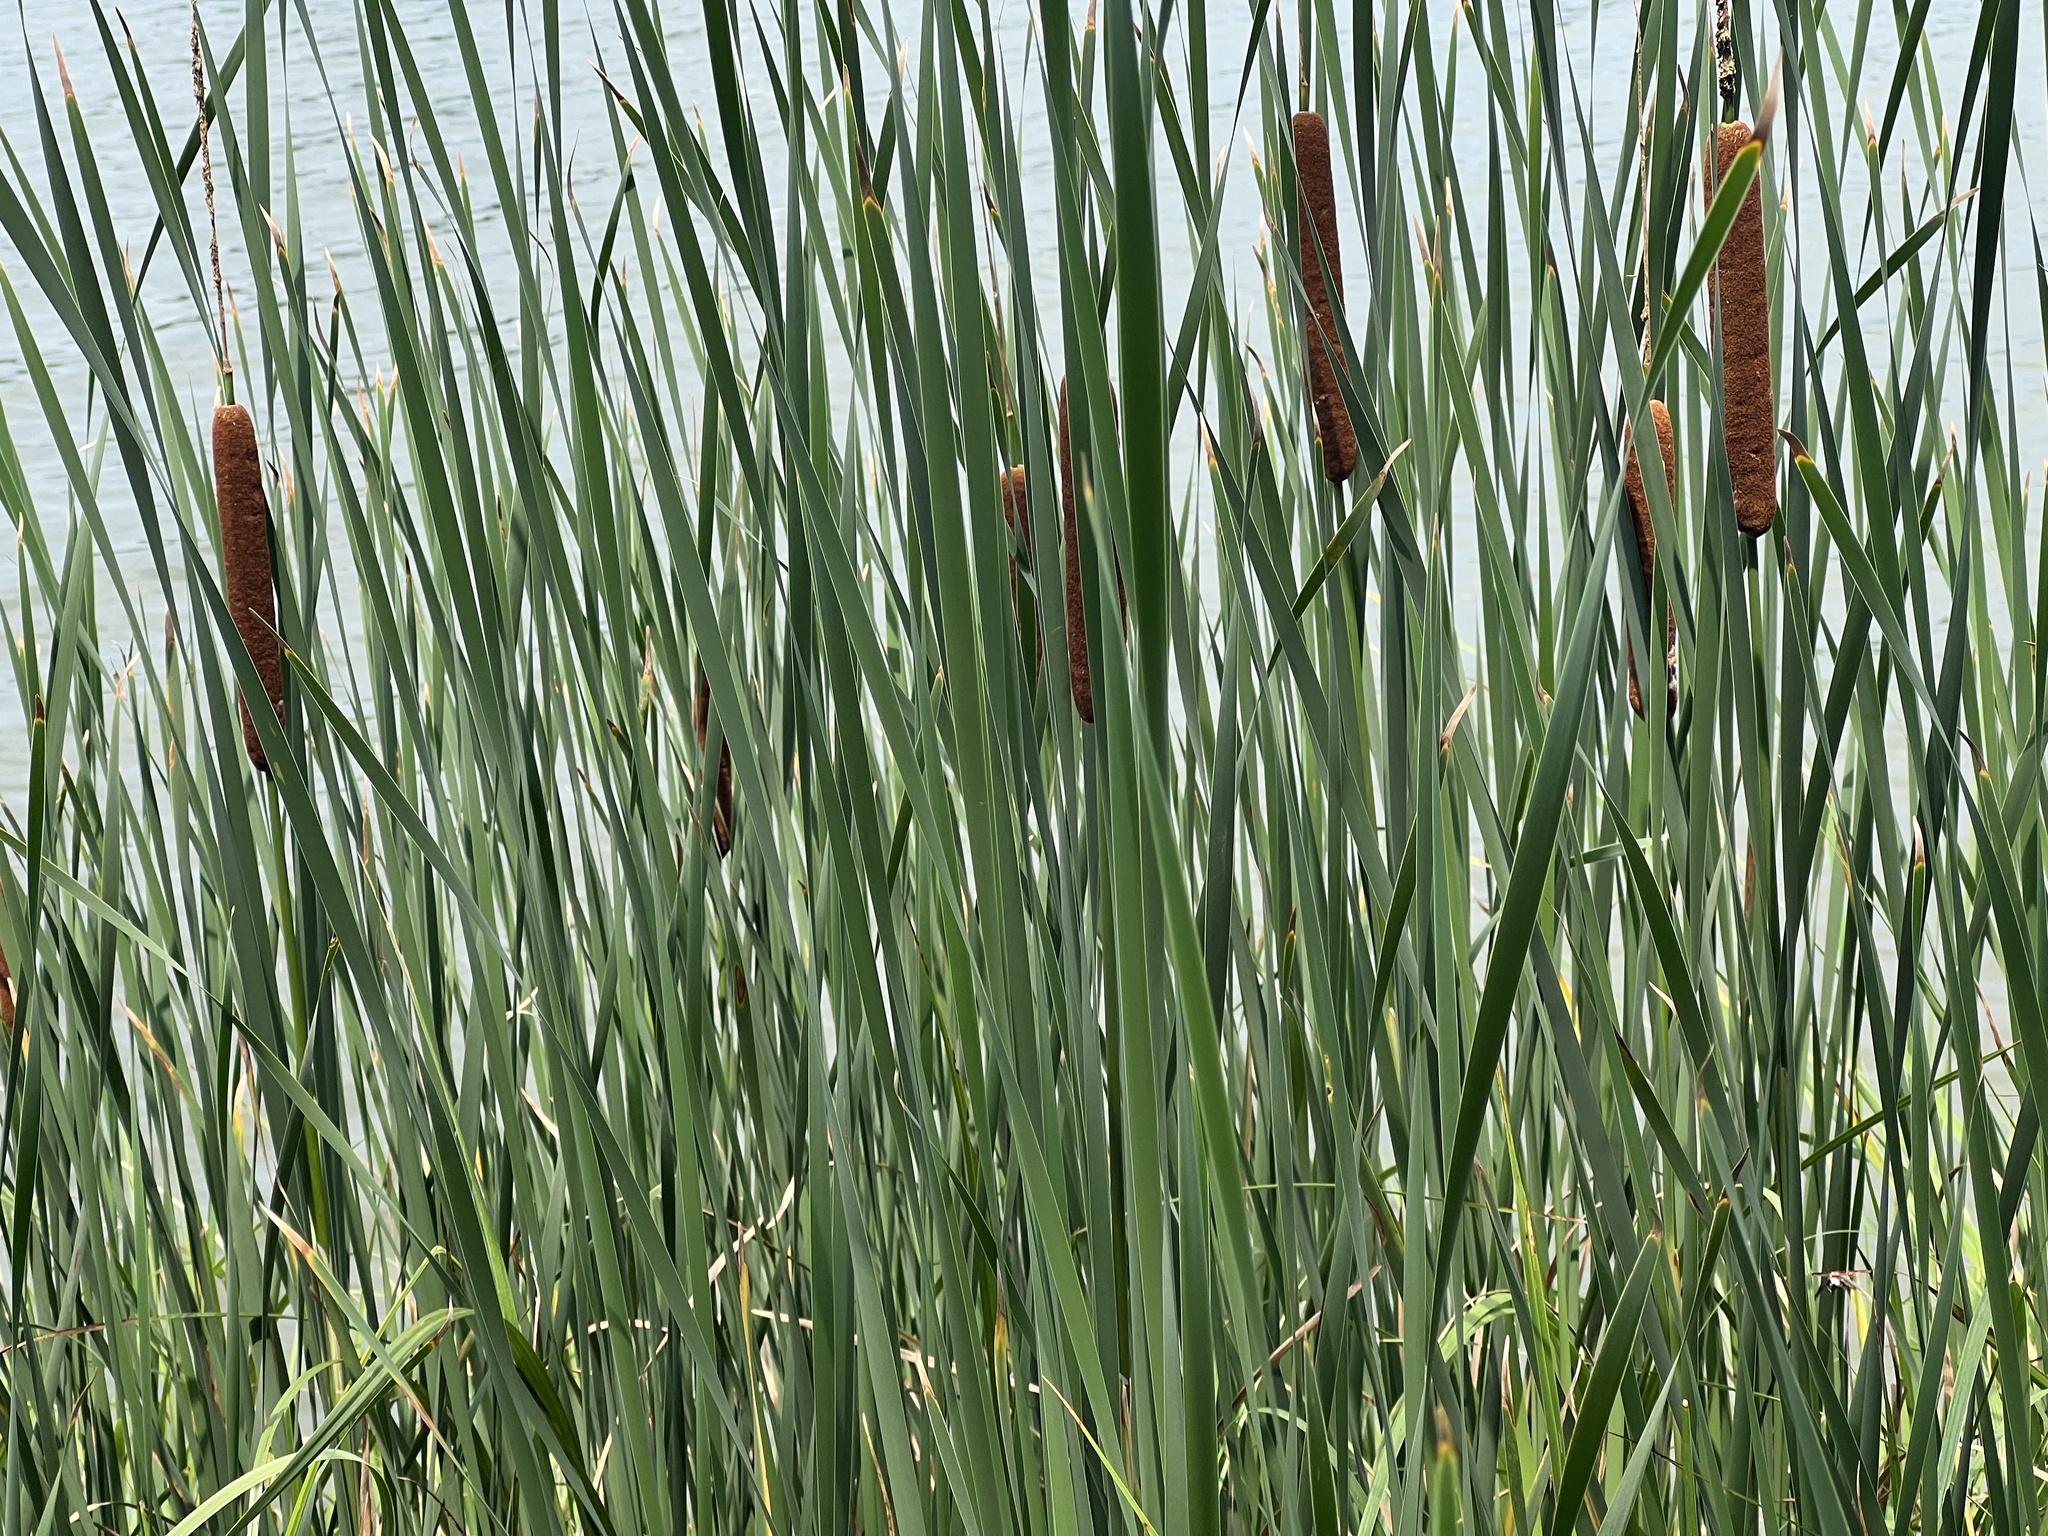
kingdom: Plantae
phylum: Tracheophyta
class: Liliopsida
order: Poales
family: Typhaceae
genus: Typha
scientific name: Typha angustifolia
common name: Lesser bulrush
